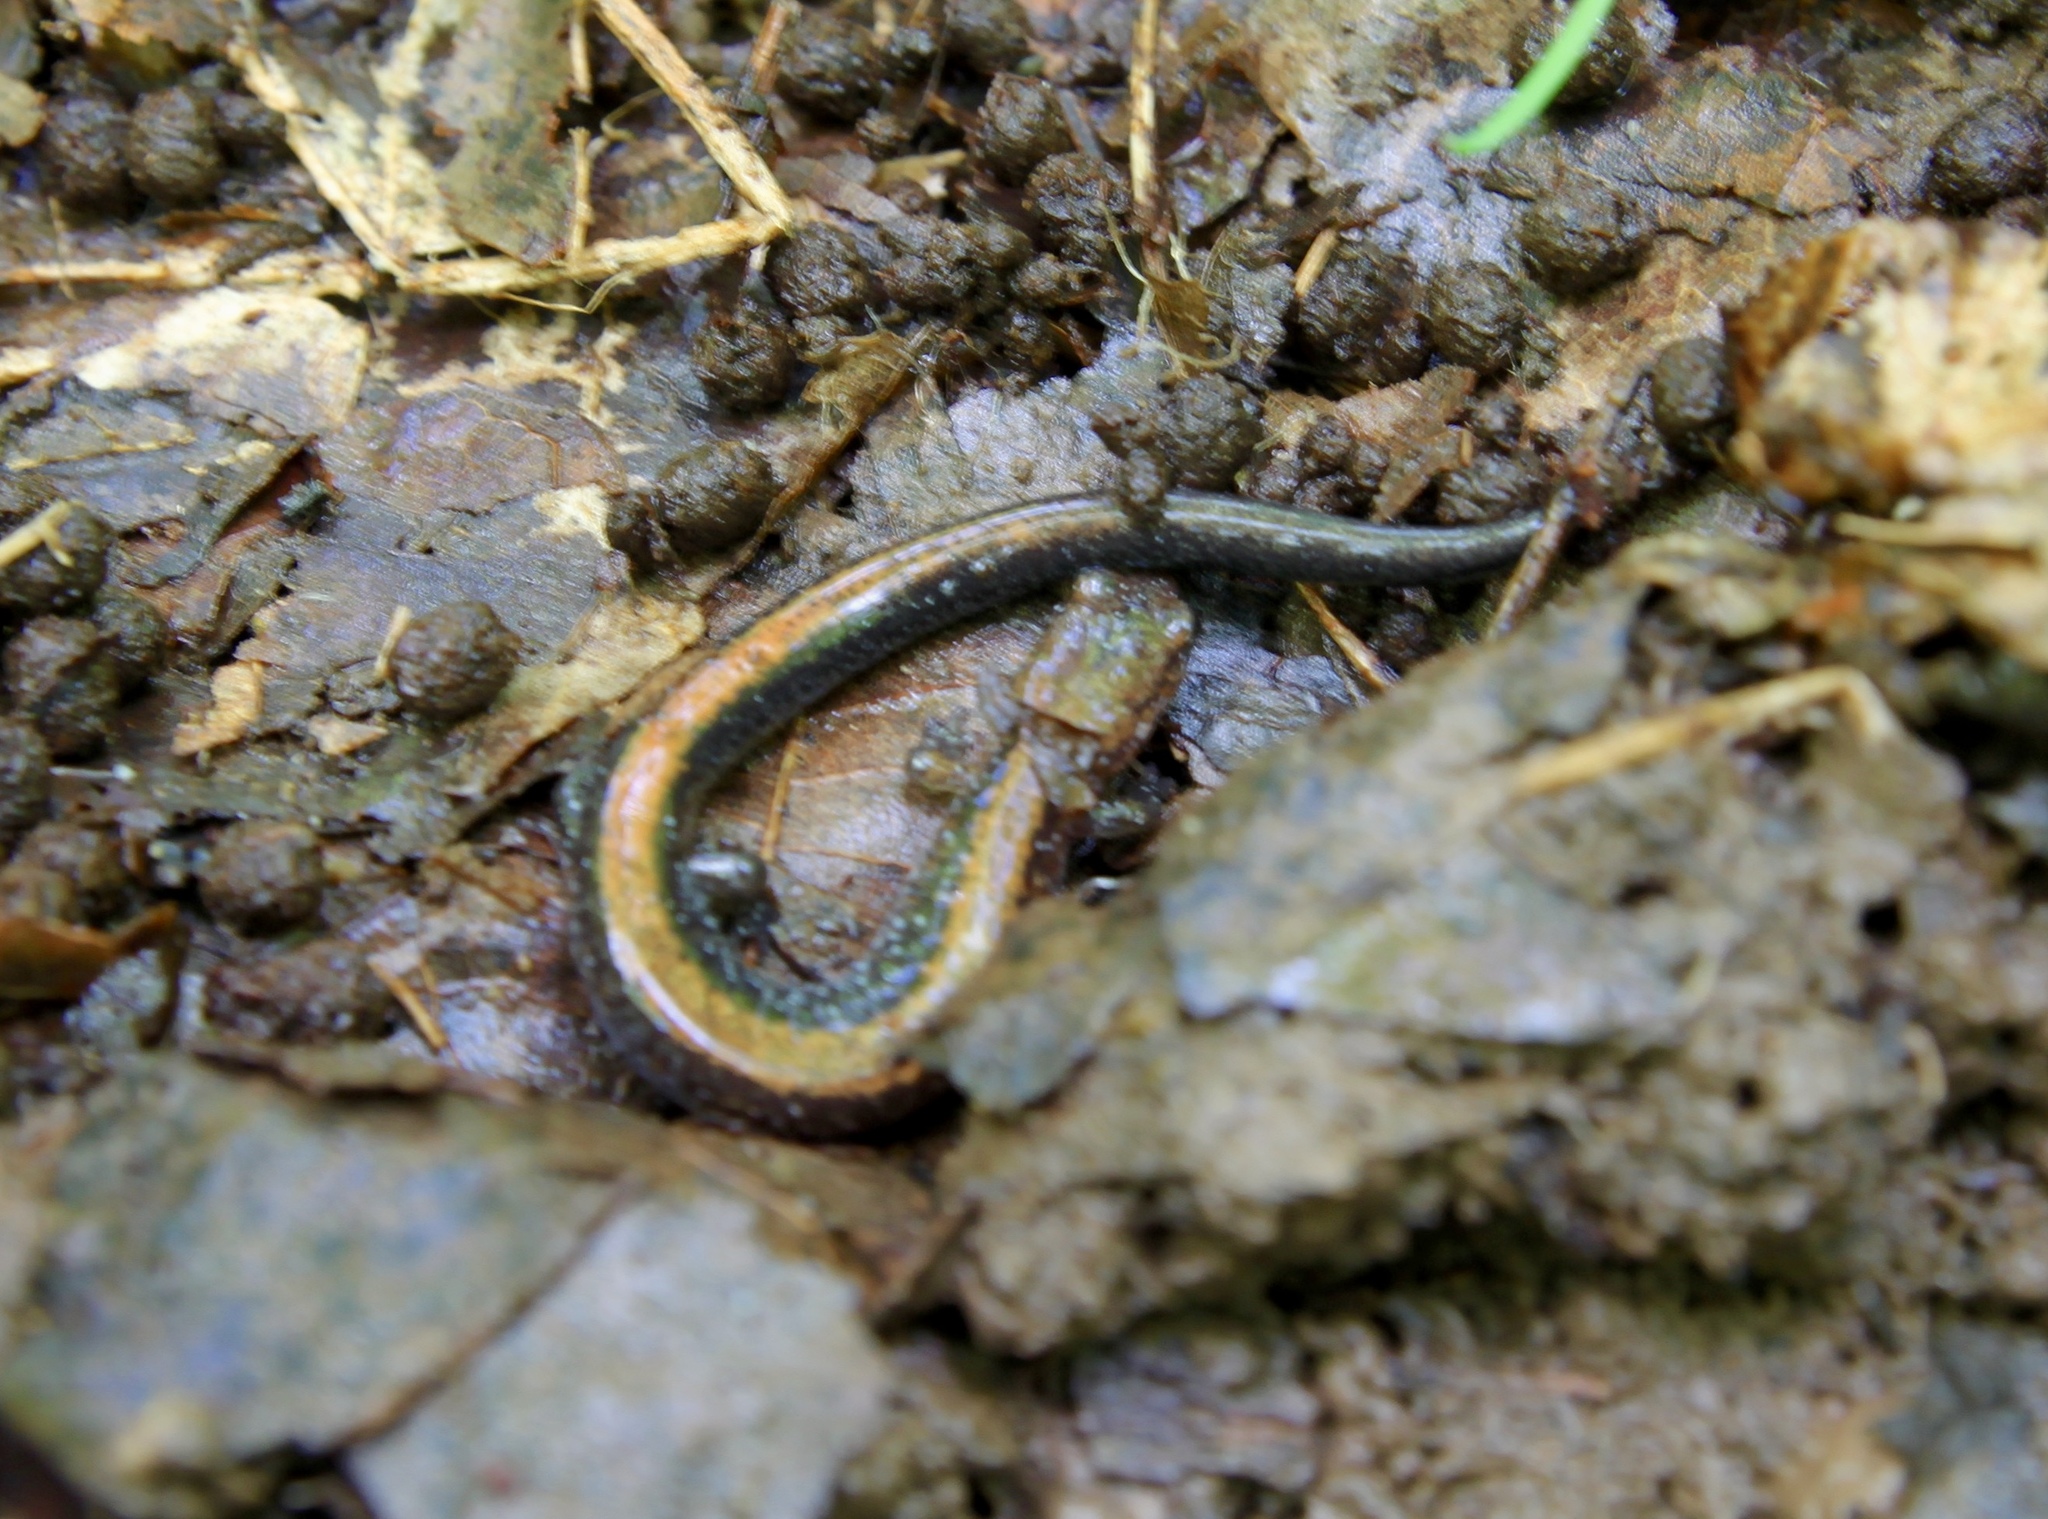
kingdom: Animalia
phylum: Chordata
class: Amphibia
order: Caudata
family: Plethodontidae
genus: Plethodon
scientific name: Plethodon cinereus
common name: Redback salamander
